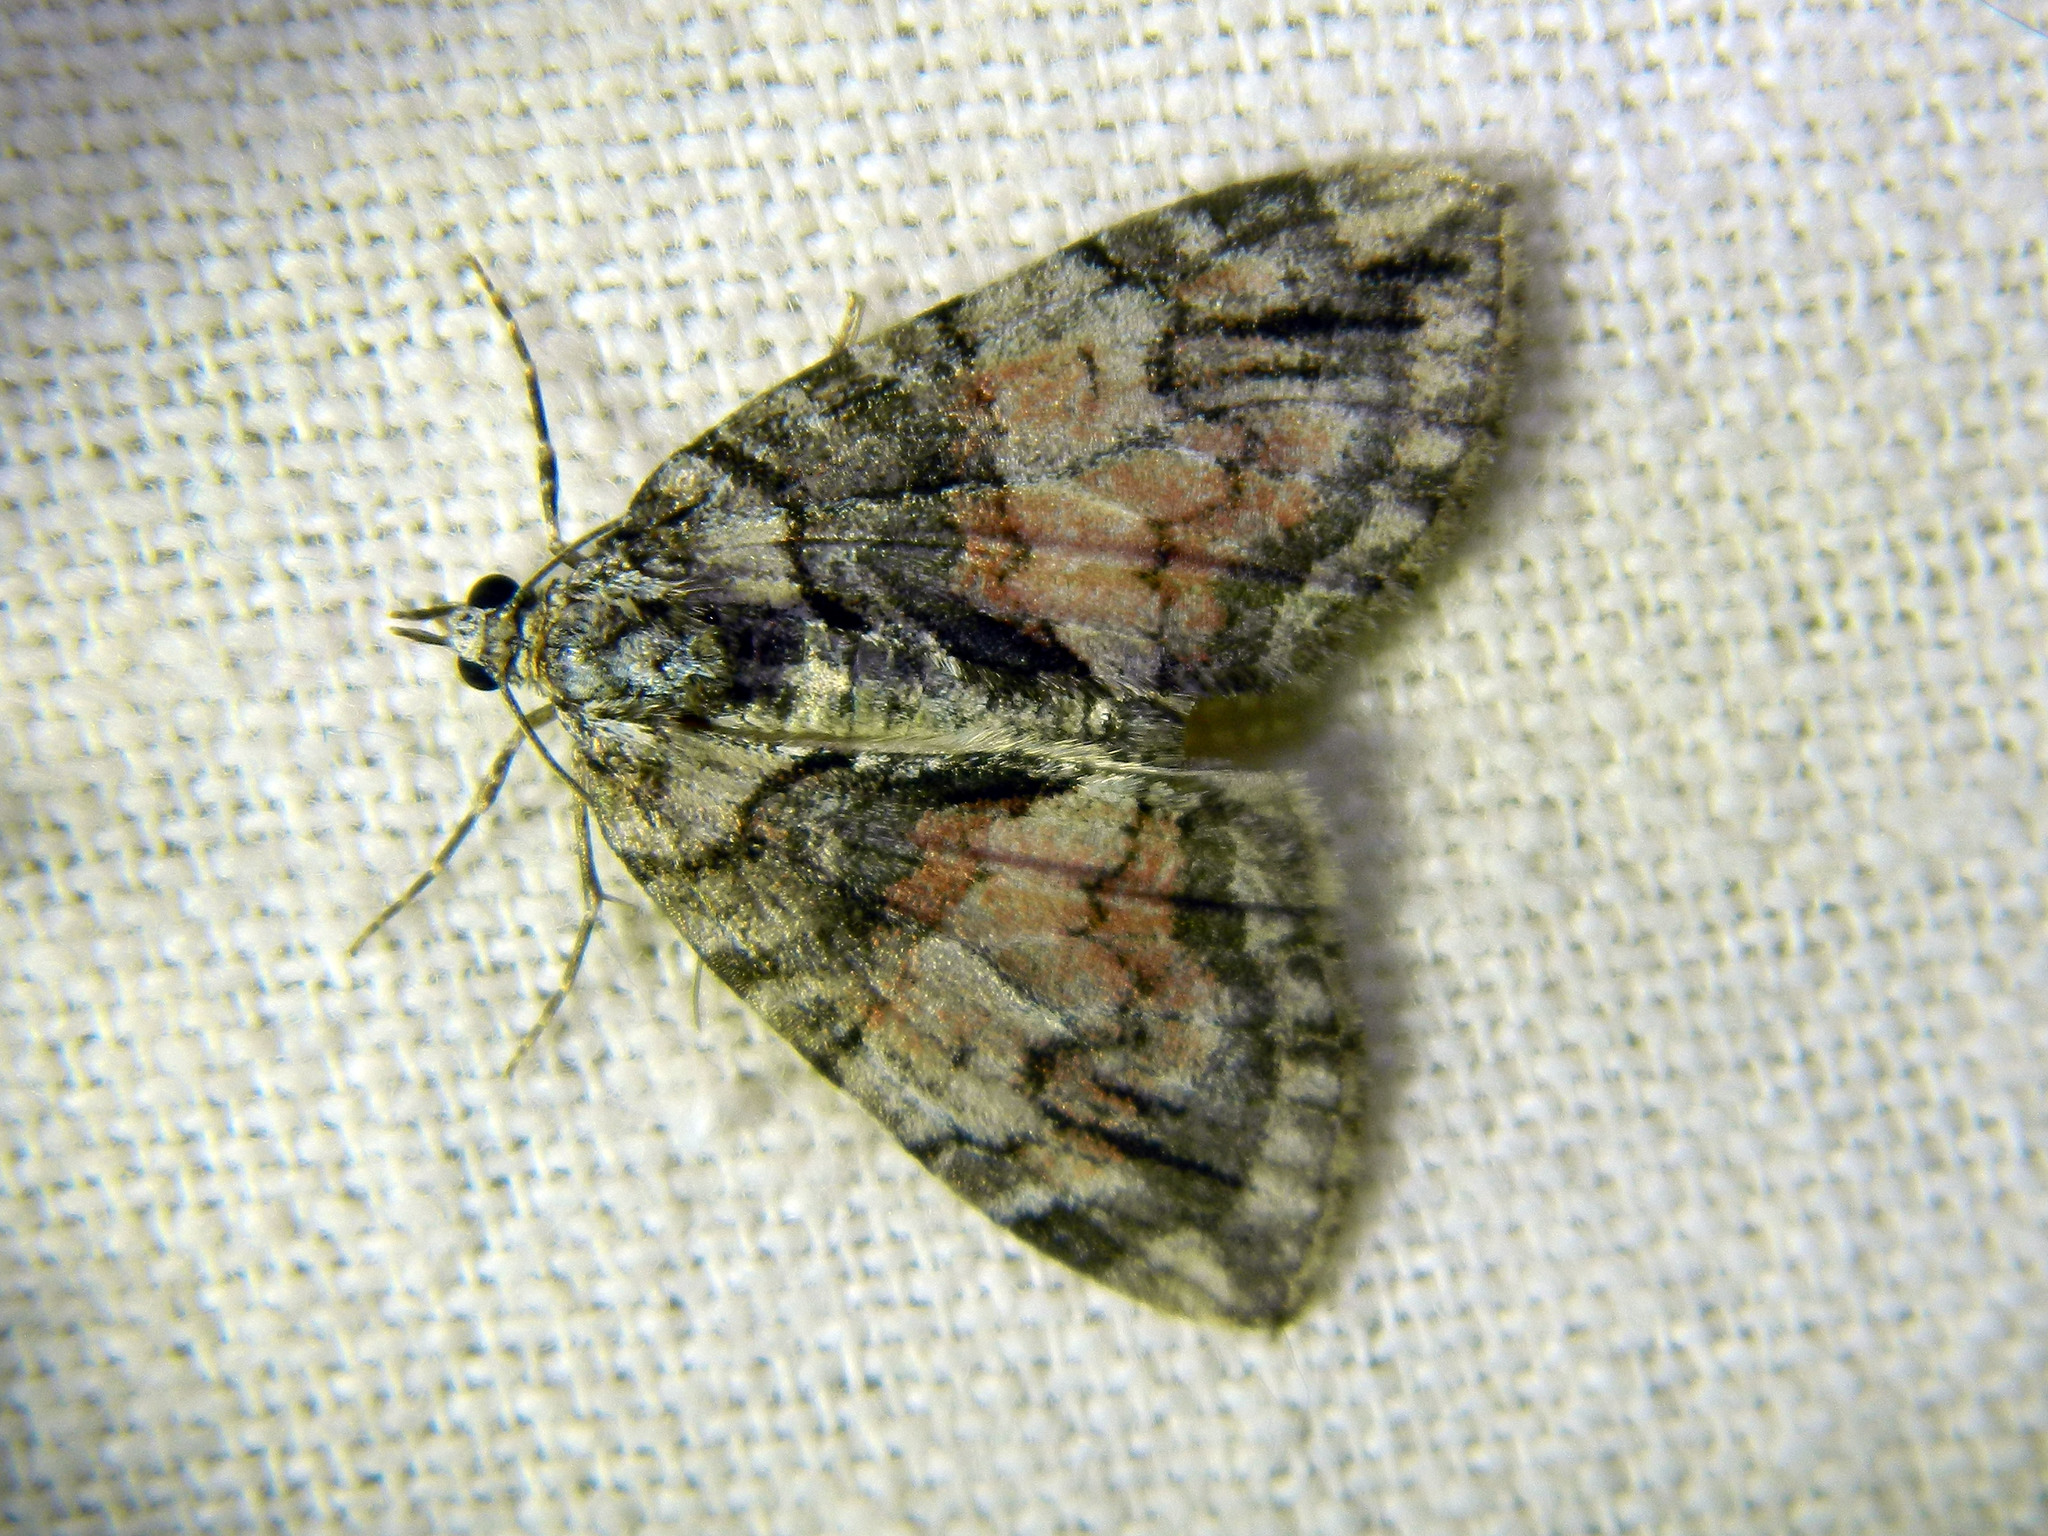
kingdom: Animalia
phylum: Arthropoda
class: Insecta
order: Lepidoptera
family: Geometridae
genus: Hydriomena
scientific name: Hydriomena perfracta
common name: Shattered hydriomena moth
